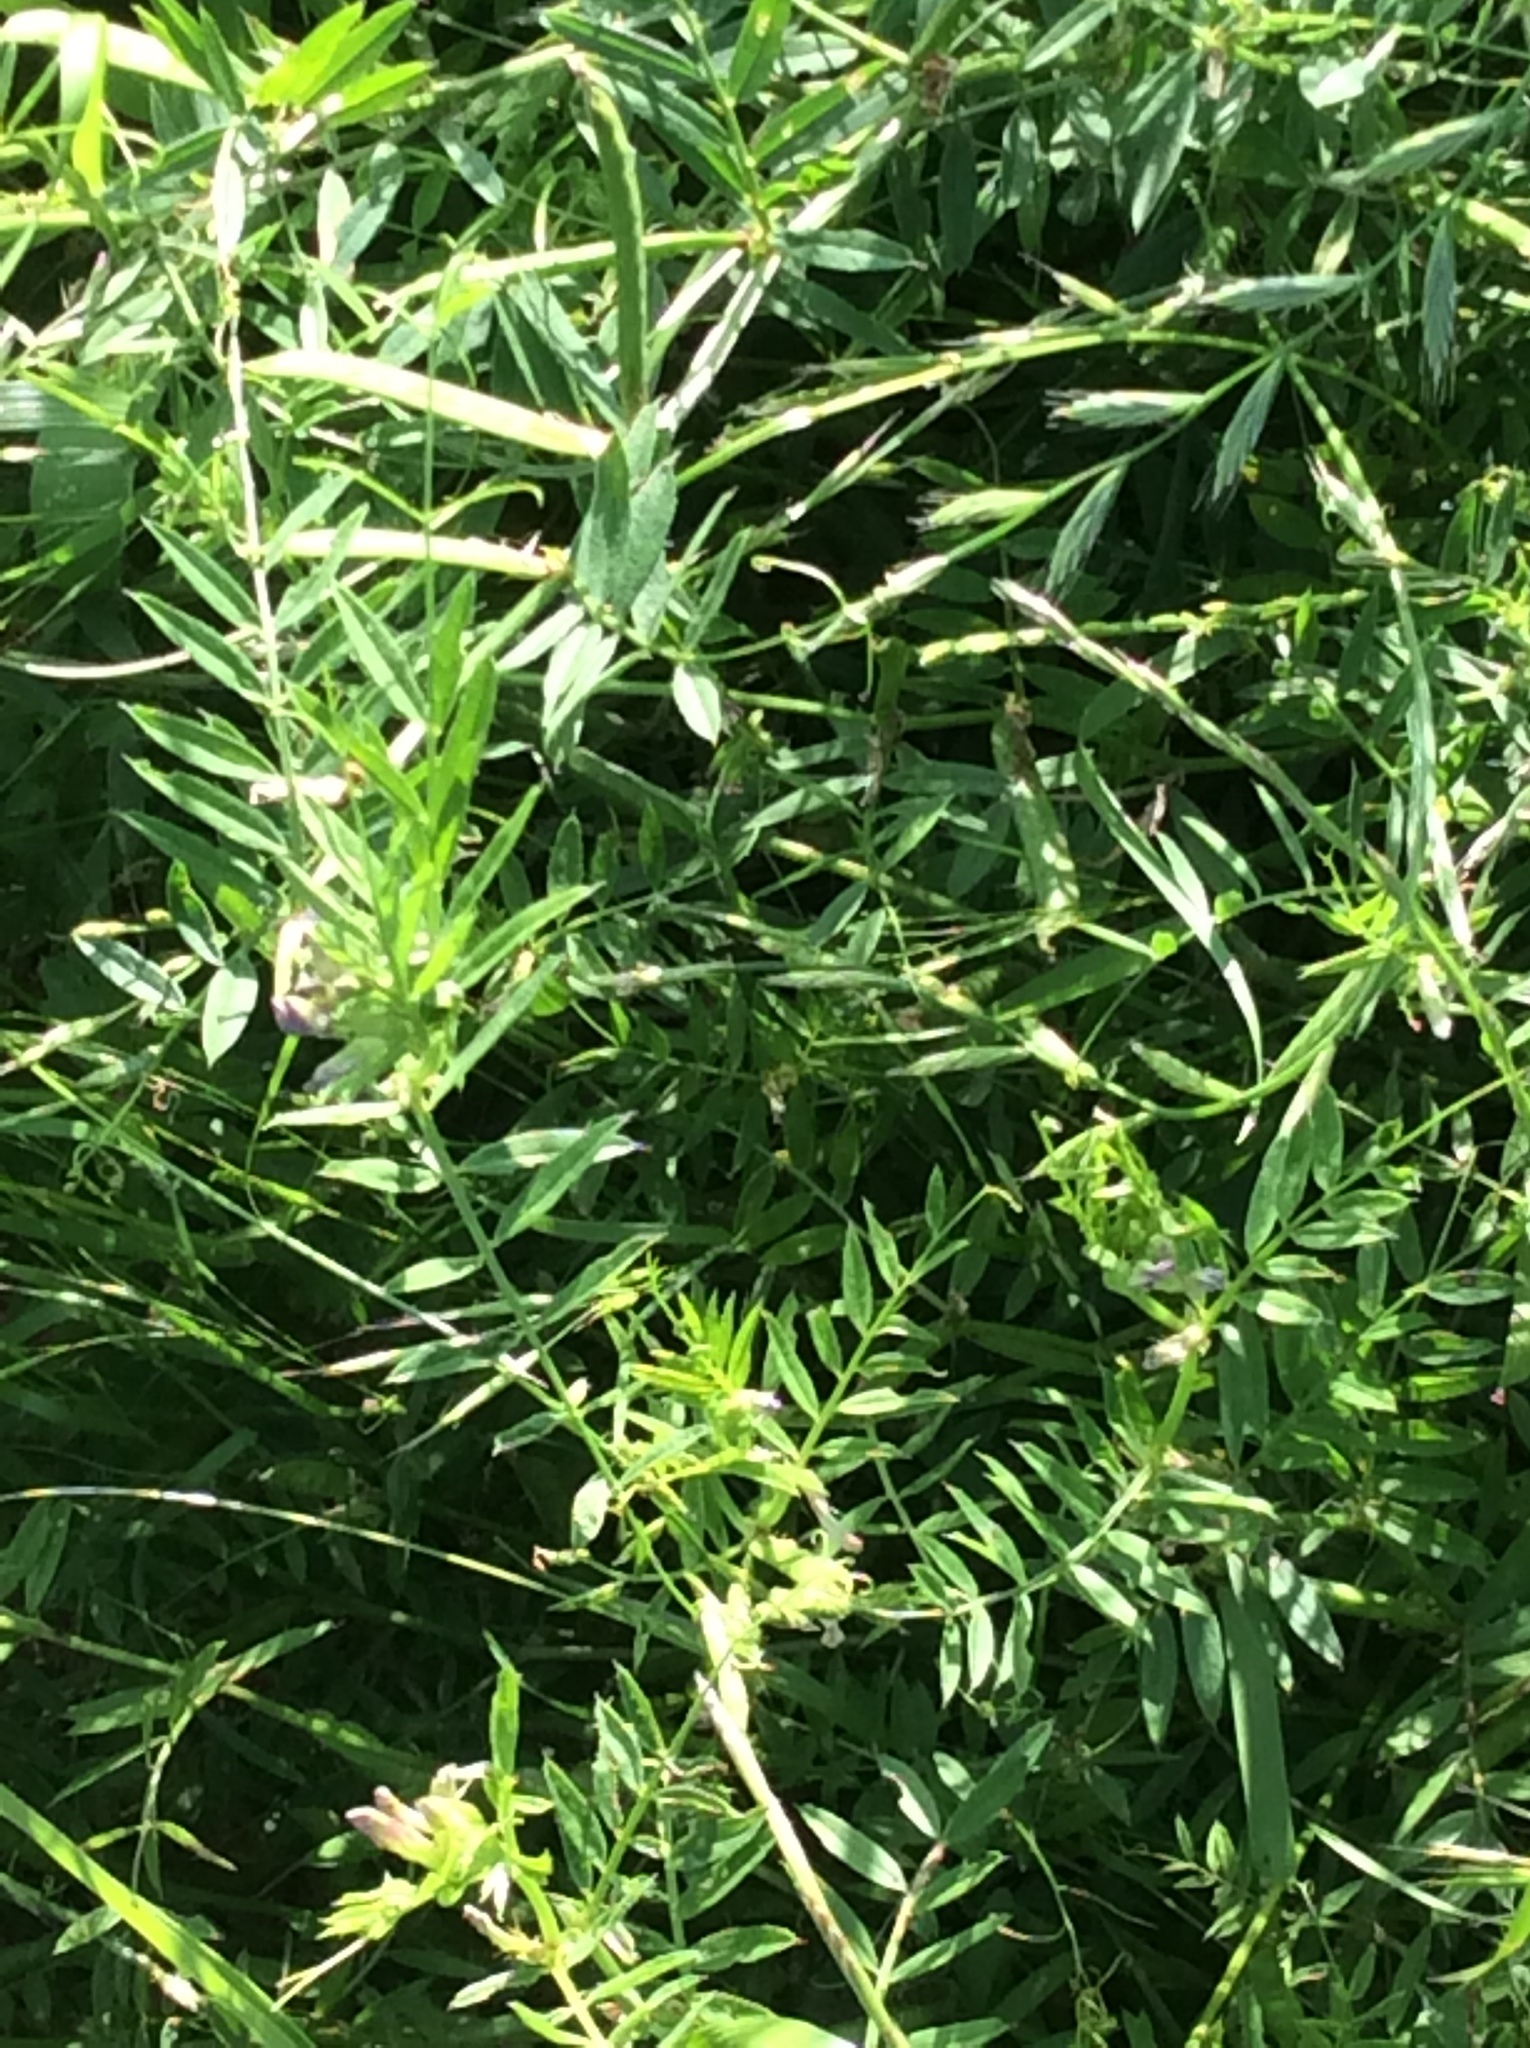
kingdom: Plantae
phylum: Tracheophyta
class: Magnoliopsida
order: Fabales
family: Fabaceae
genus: Vicia
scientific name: Vicia sativa
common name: Garden vetch
